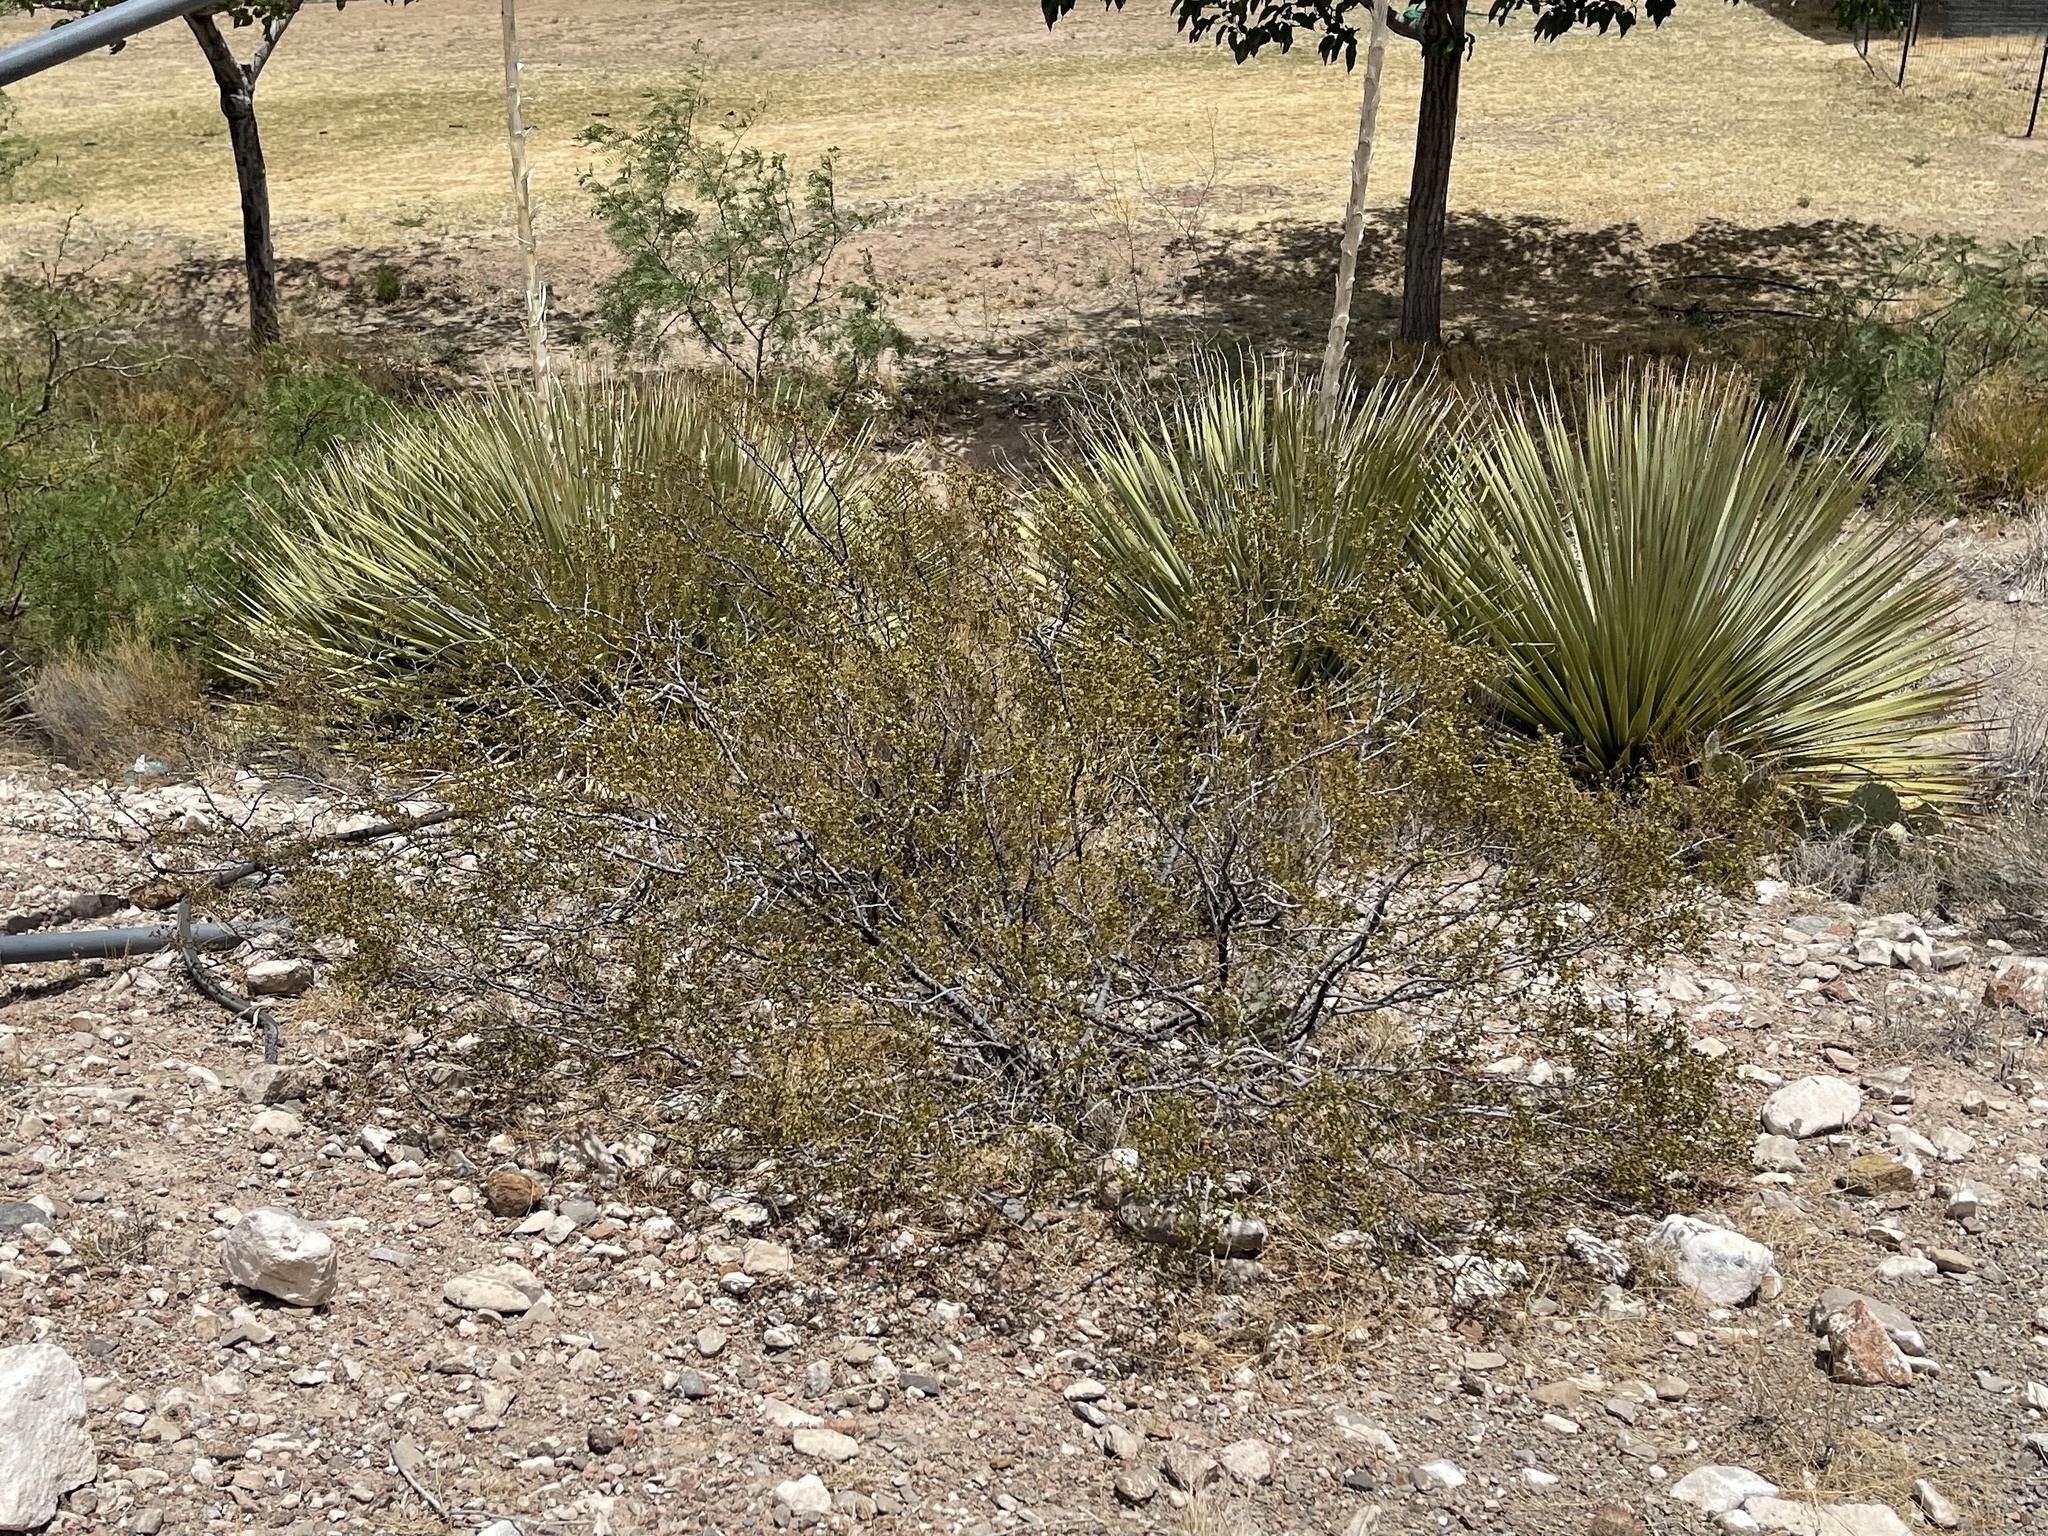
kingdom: Plantae
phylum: Tracheophyta
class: Magnoliopsida
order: Zygophyllales
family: Zygophyllaceae
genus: Larrea
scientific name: Larrea tridentata
